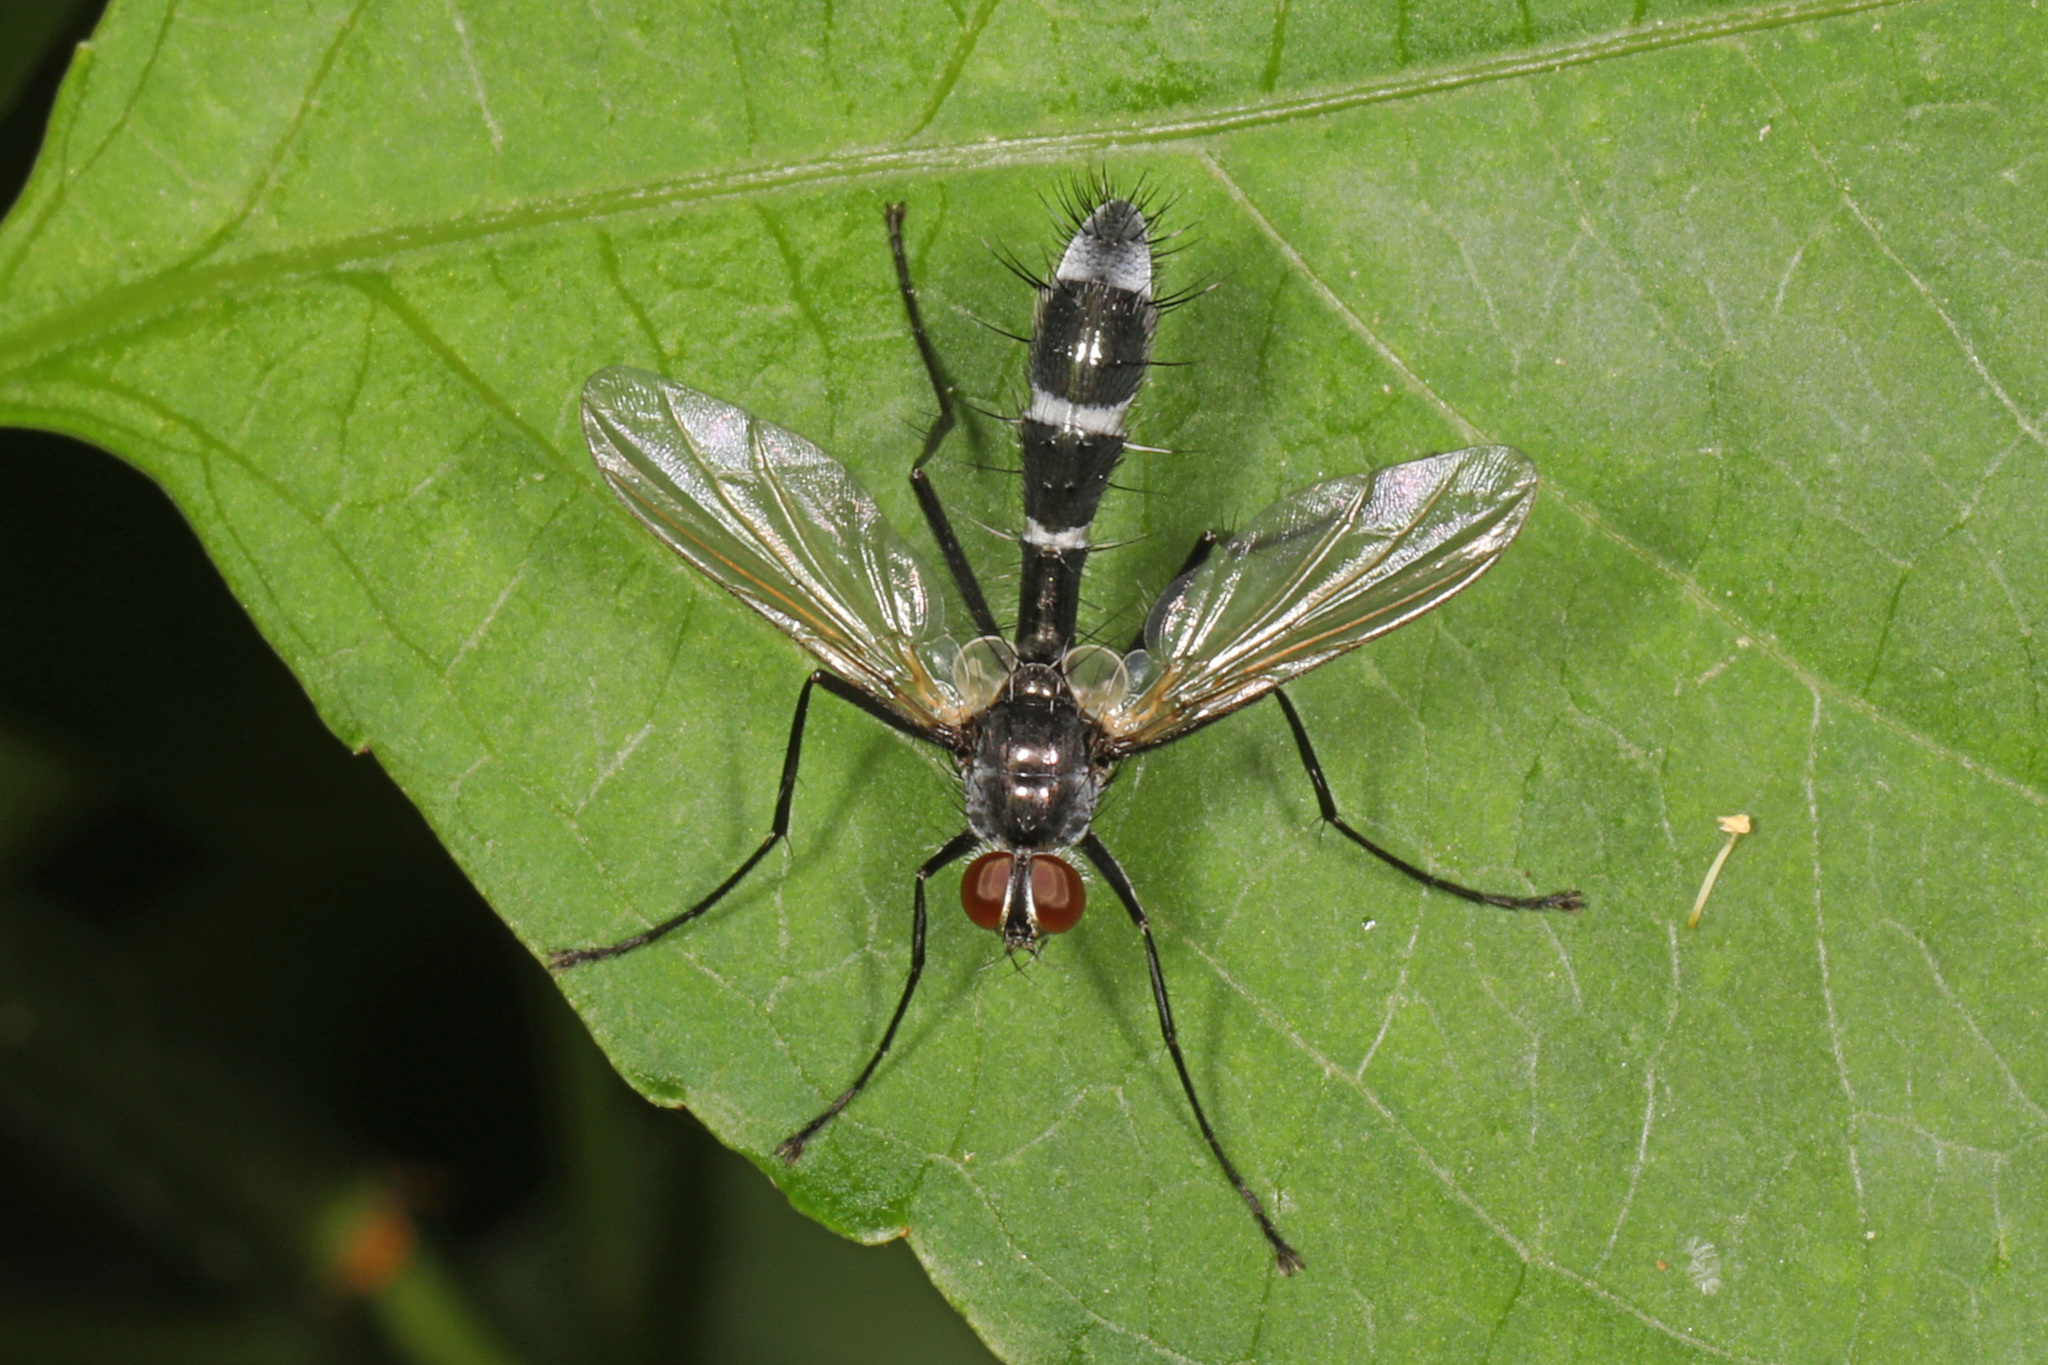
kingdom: Animalia
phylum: Arthropoda
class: Insecta
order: Diptera
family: Tachinidae
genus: Cordyligaster
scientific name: Cordyligaster septentrionalis
